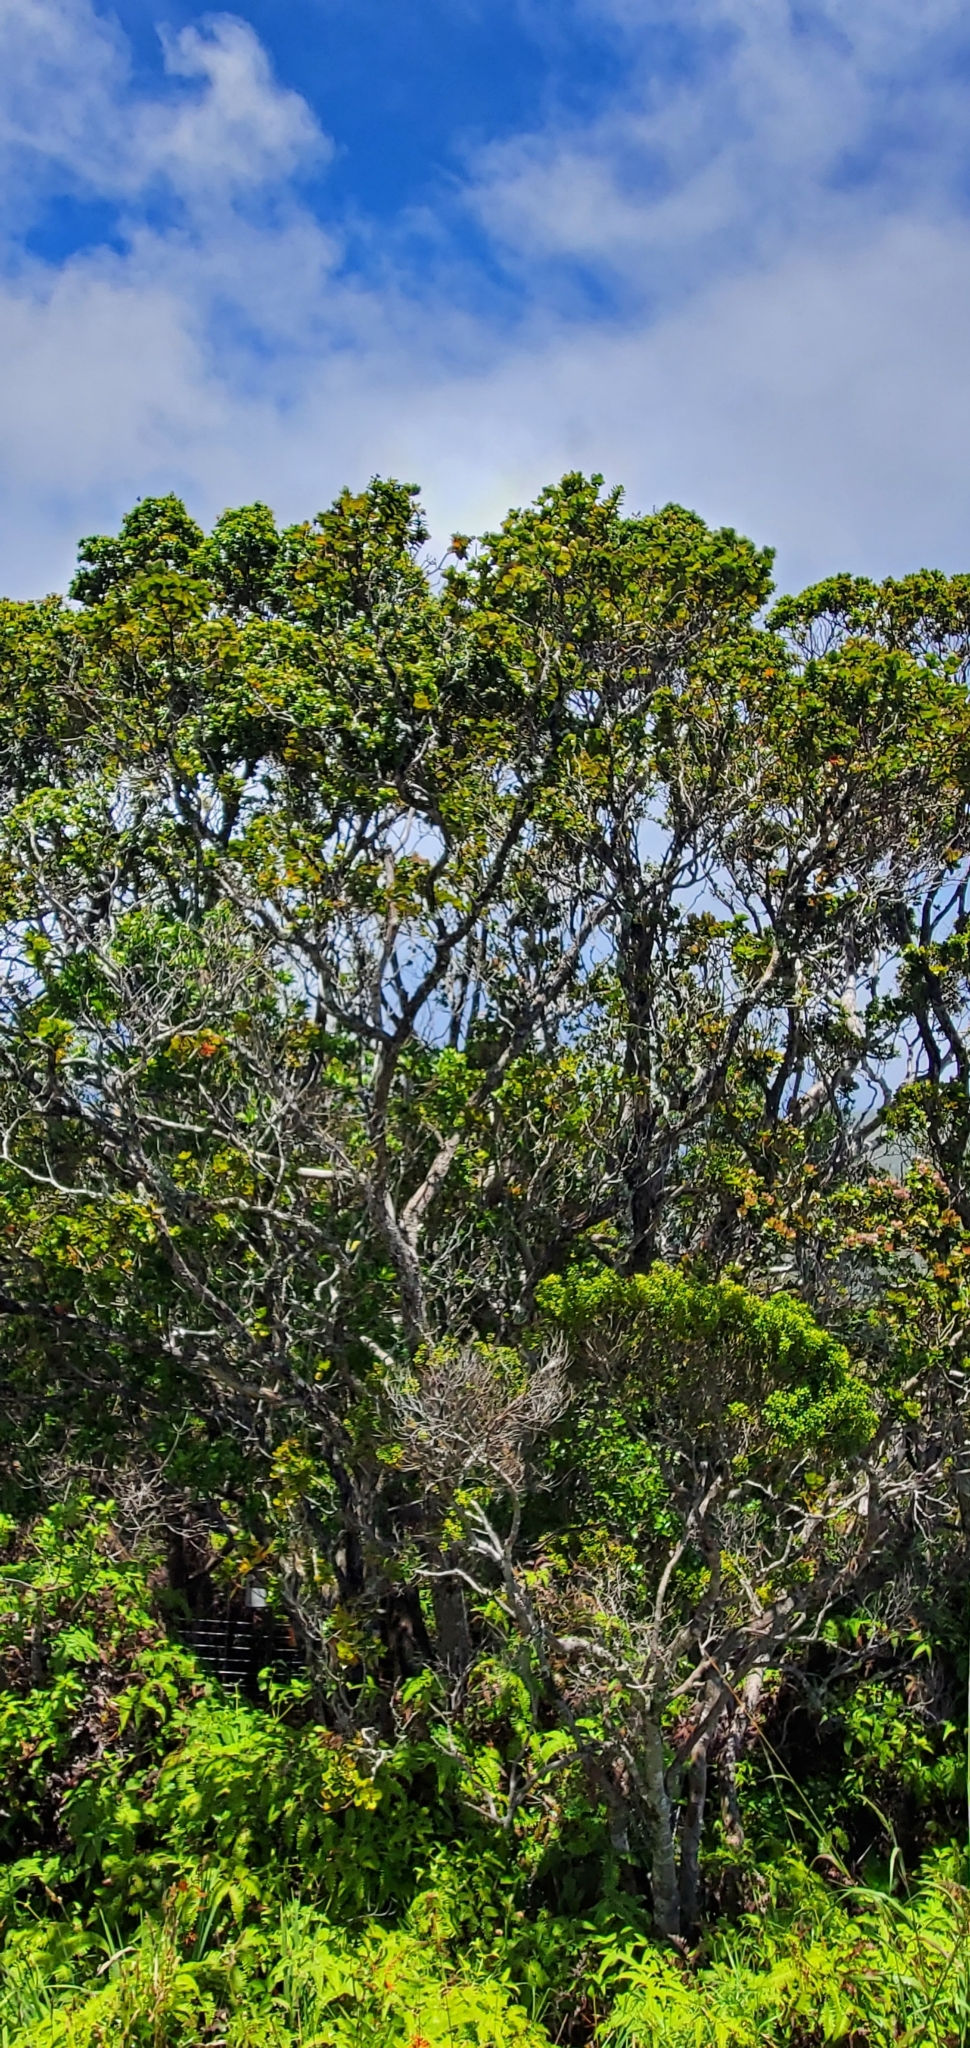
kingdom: Plantae
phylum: Tracheophyta
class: Magnoliopsida
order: Myrtales
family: Myrtaceae
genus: Metrosideros
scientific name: Metrosideros polymorpha
